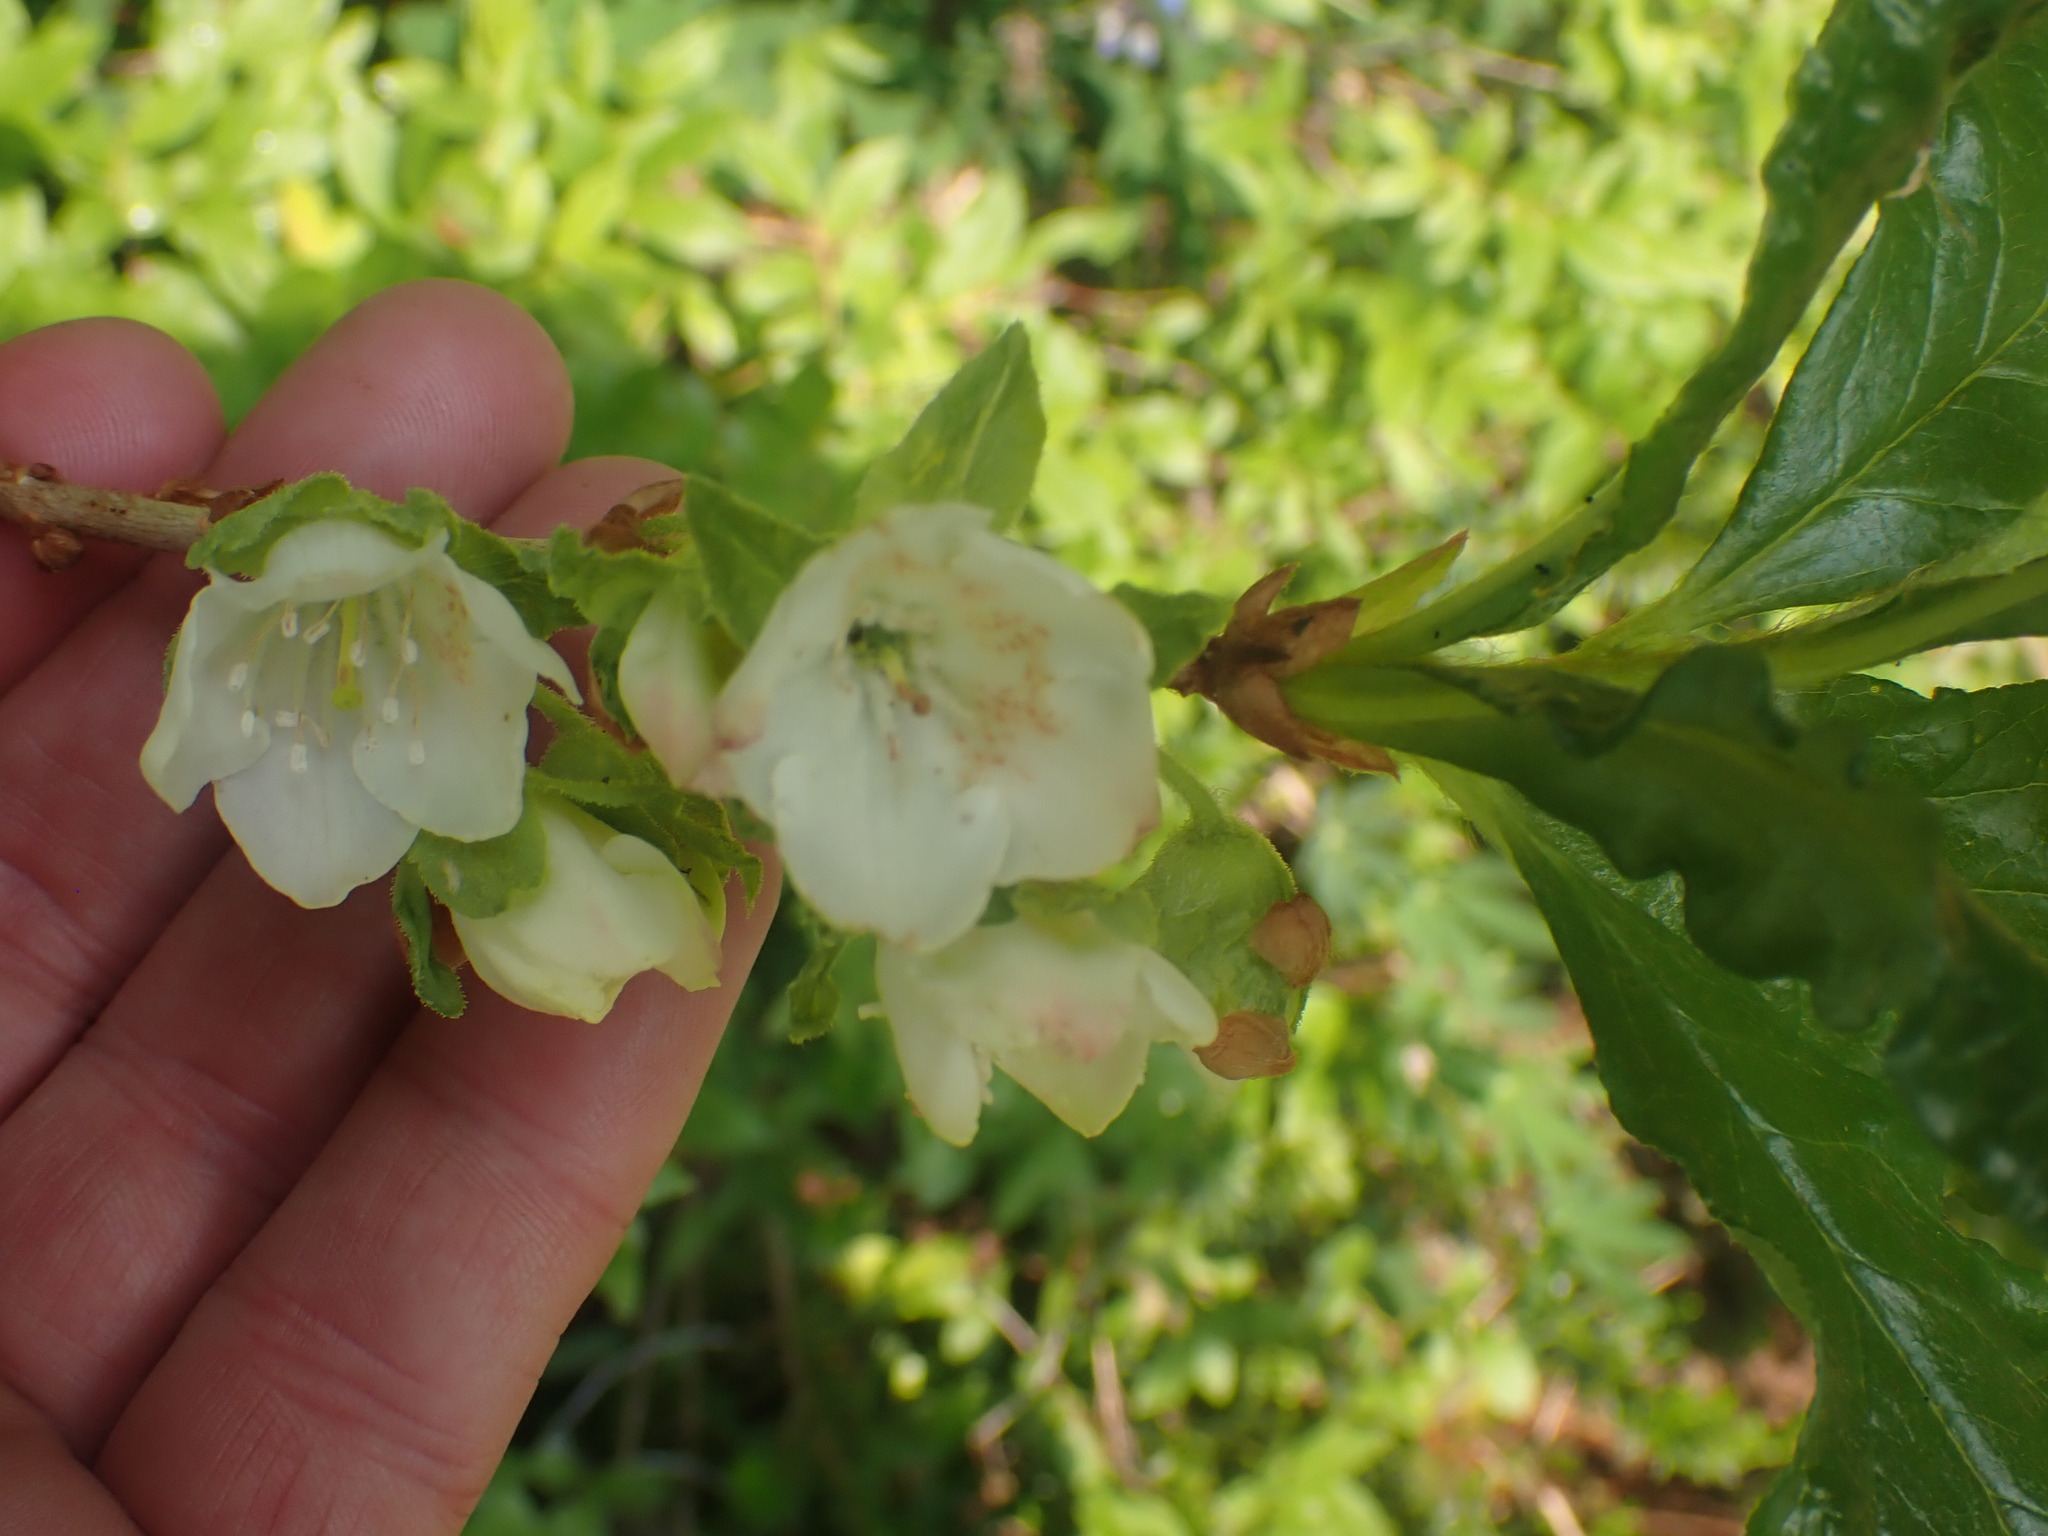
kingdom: Plantae
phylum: Tracheophyta
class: Magnoliopsida
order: Ericales
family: Ericaceae
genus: Rhododendron
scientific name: Rhododendron albiflorum
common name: White rhododendron
